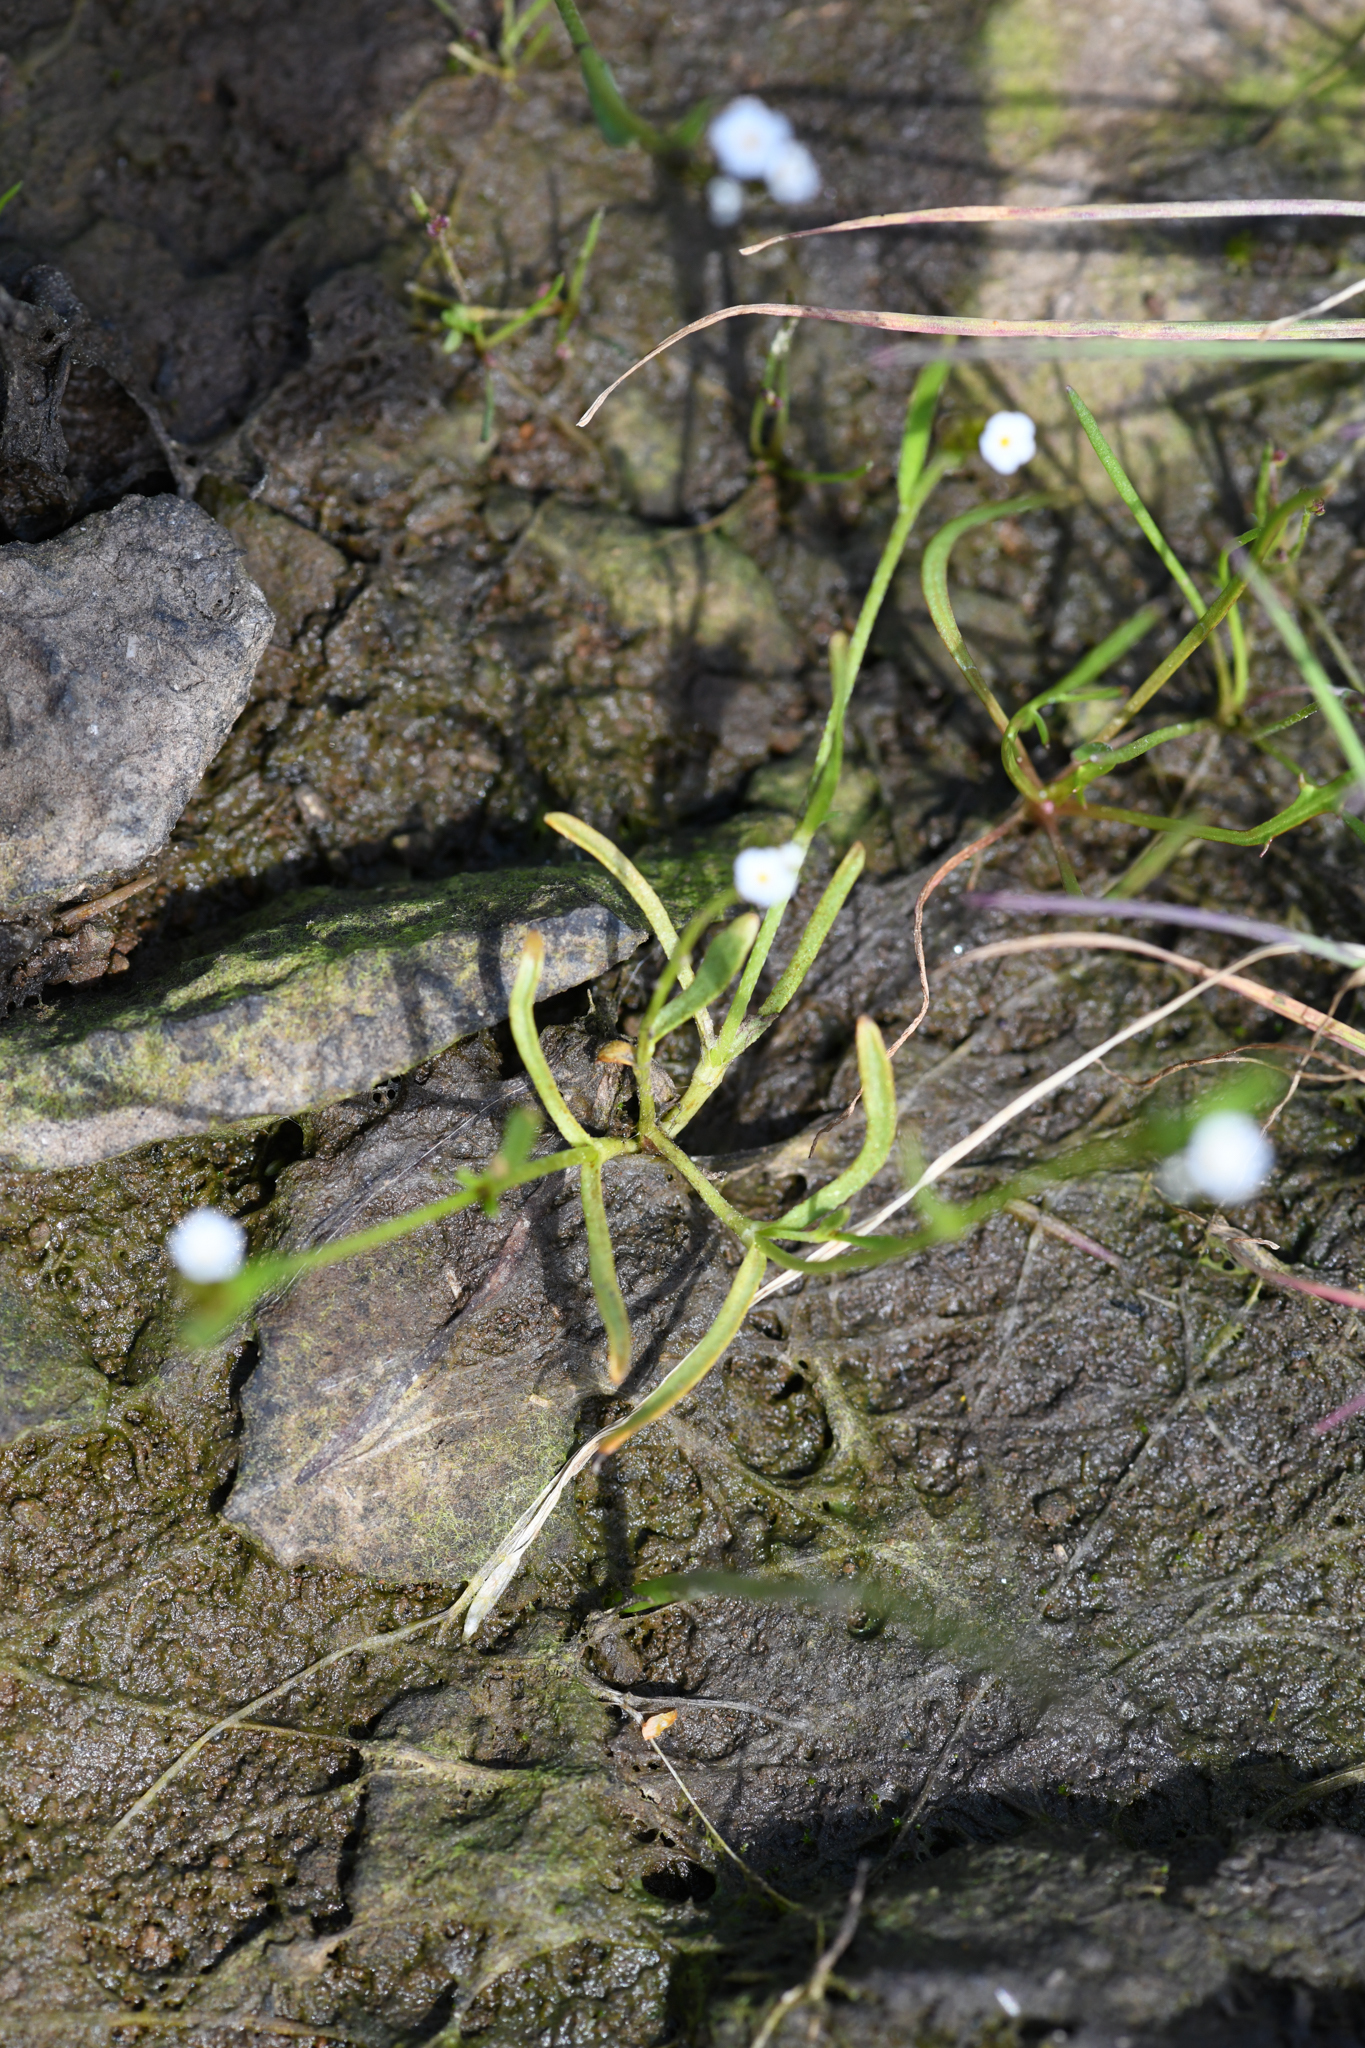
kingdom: Plantae
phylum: Tracheophyta
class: Magnoliopsida
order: Boraginales
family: Boraginaceae
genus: Plagiobothrys
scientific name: Plagiobothrys austinae
